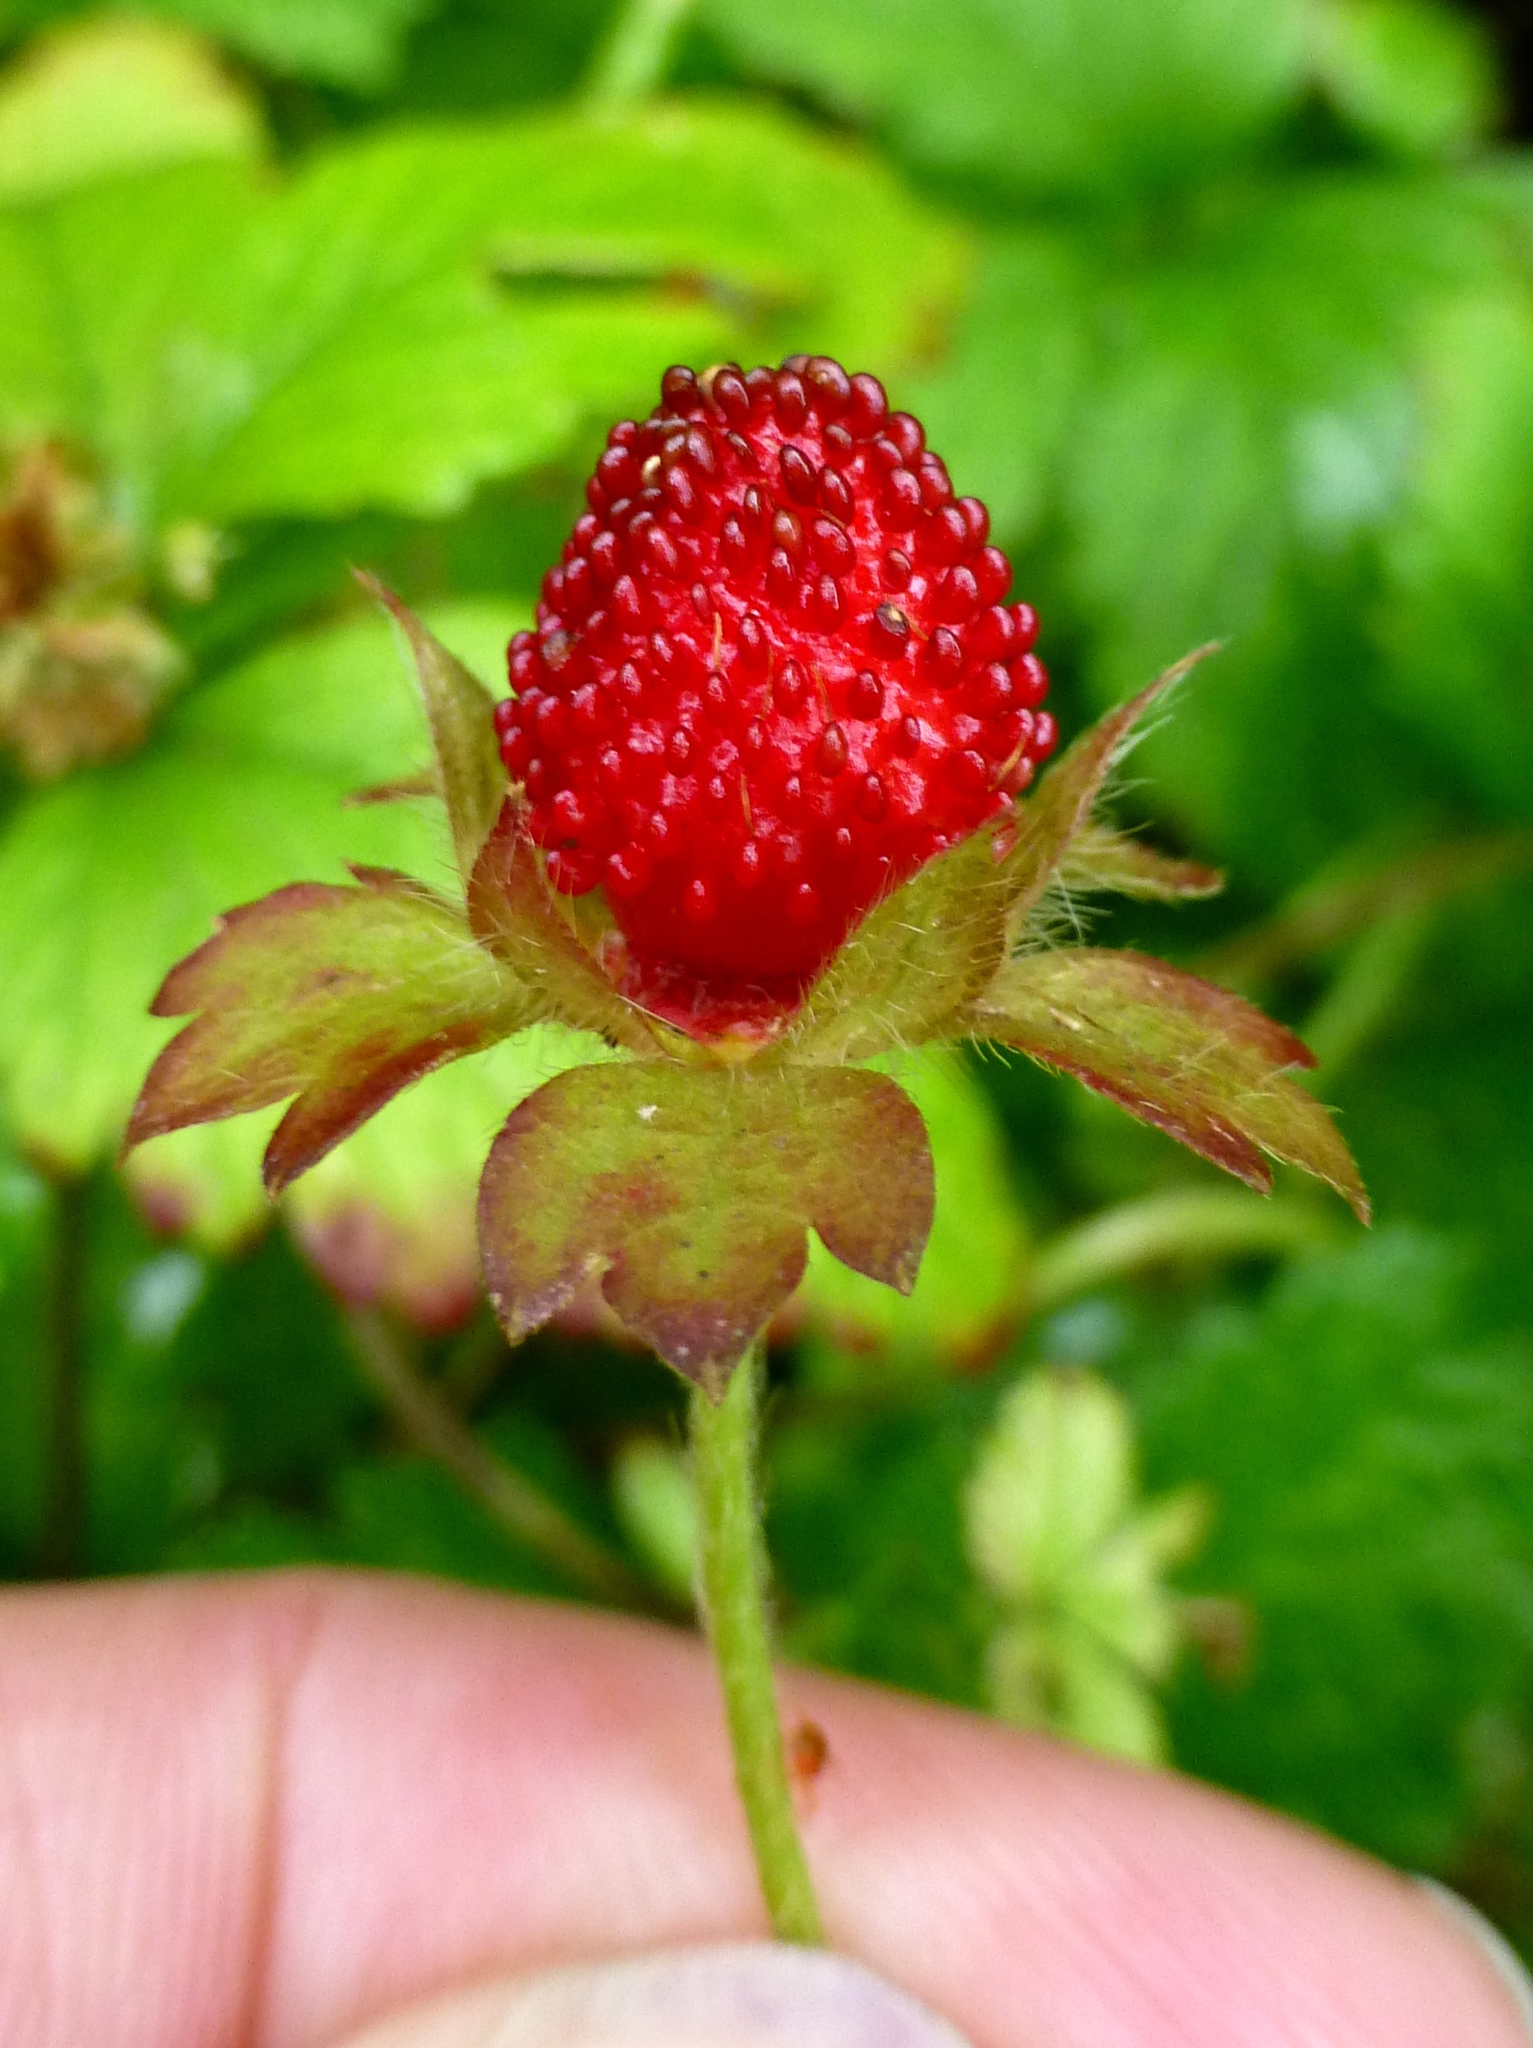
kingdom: Plantae
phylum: Tracheophyta
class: Magnoliopsida
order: Rosales
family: Rosaceae
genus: Potentilla
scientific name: Potentilla indica
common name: Yellow-flowered strawberry
